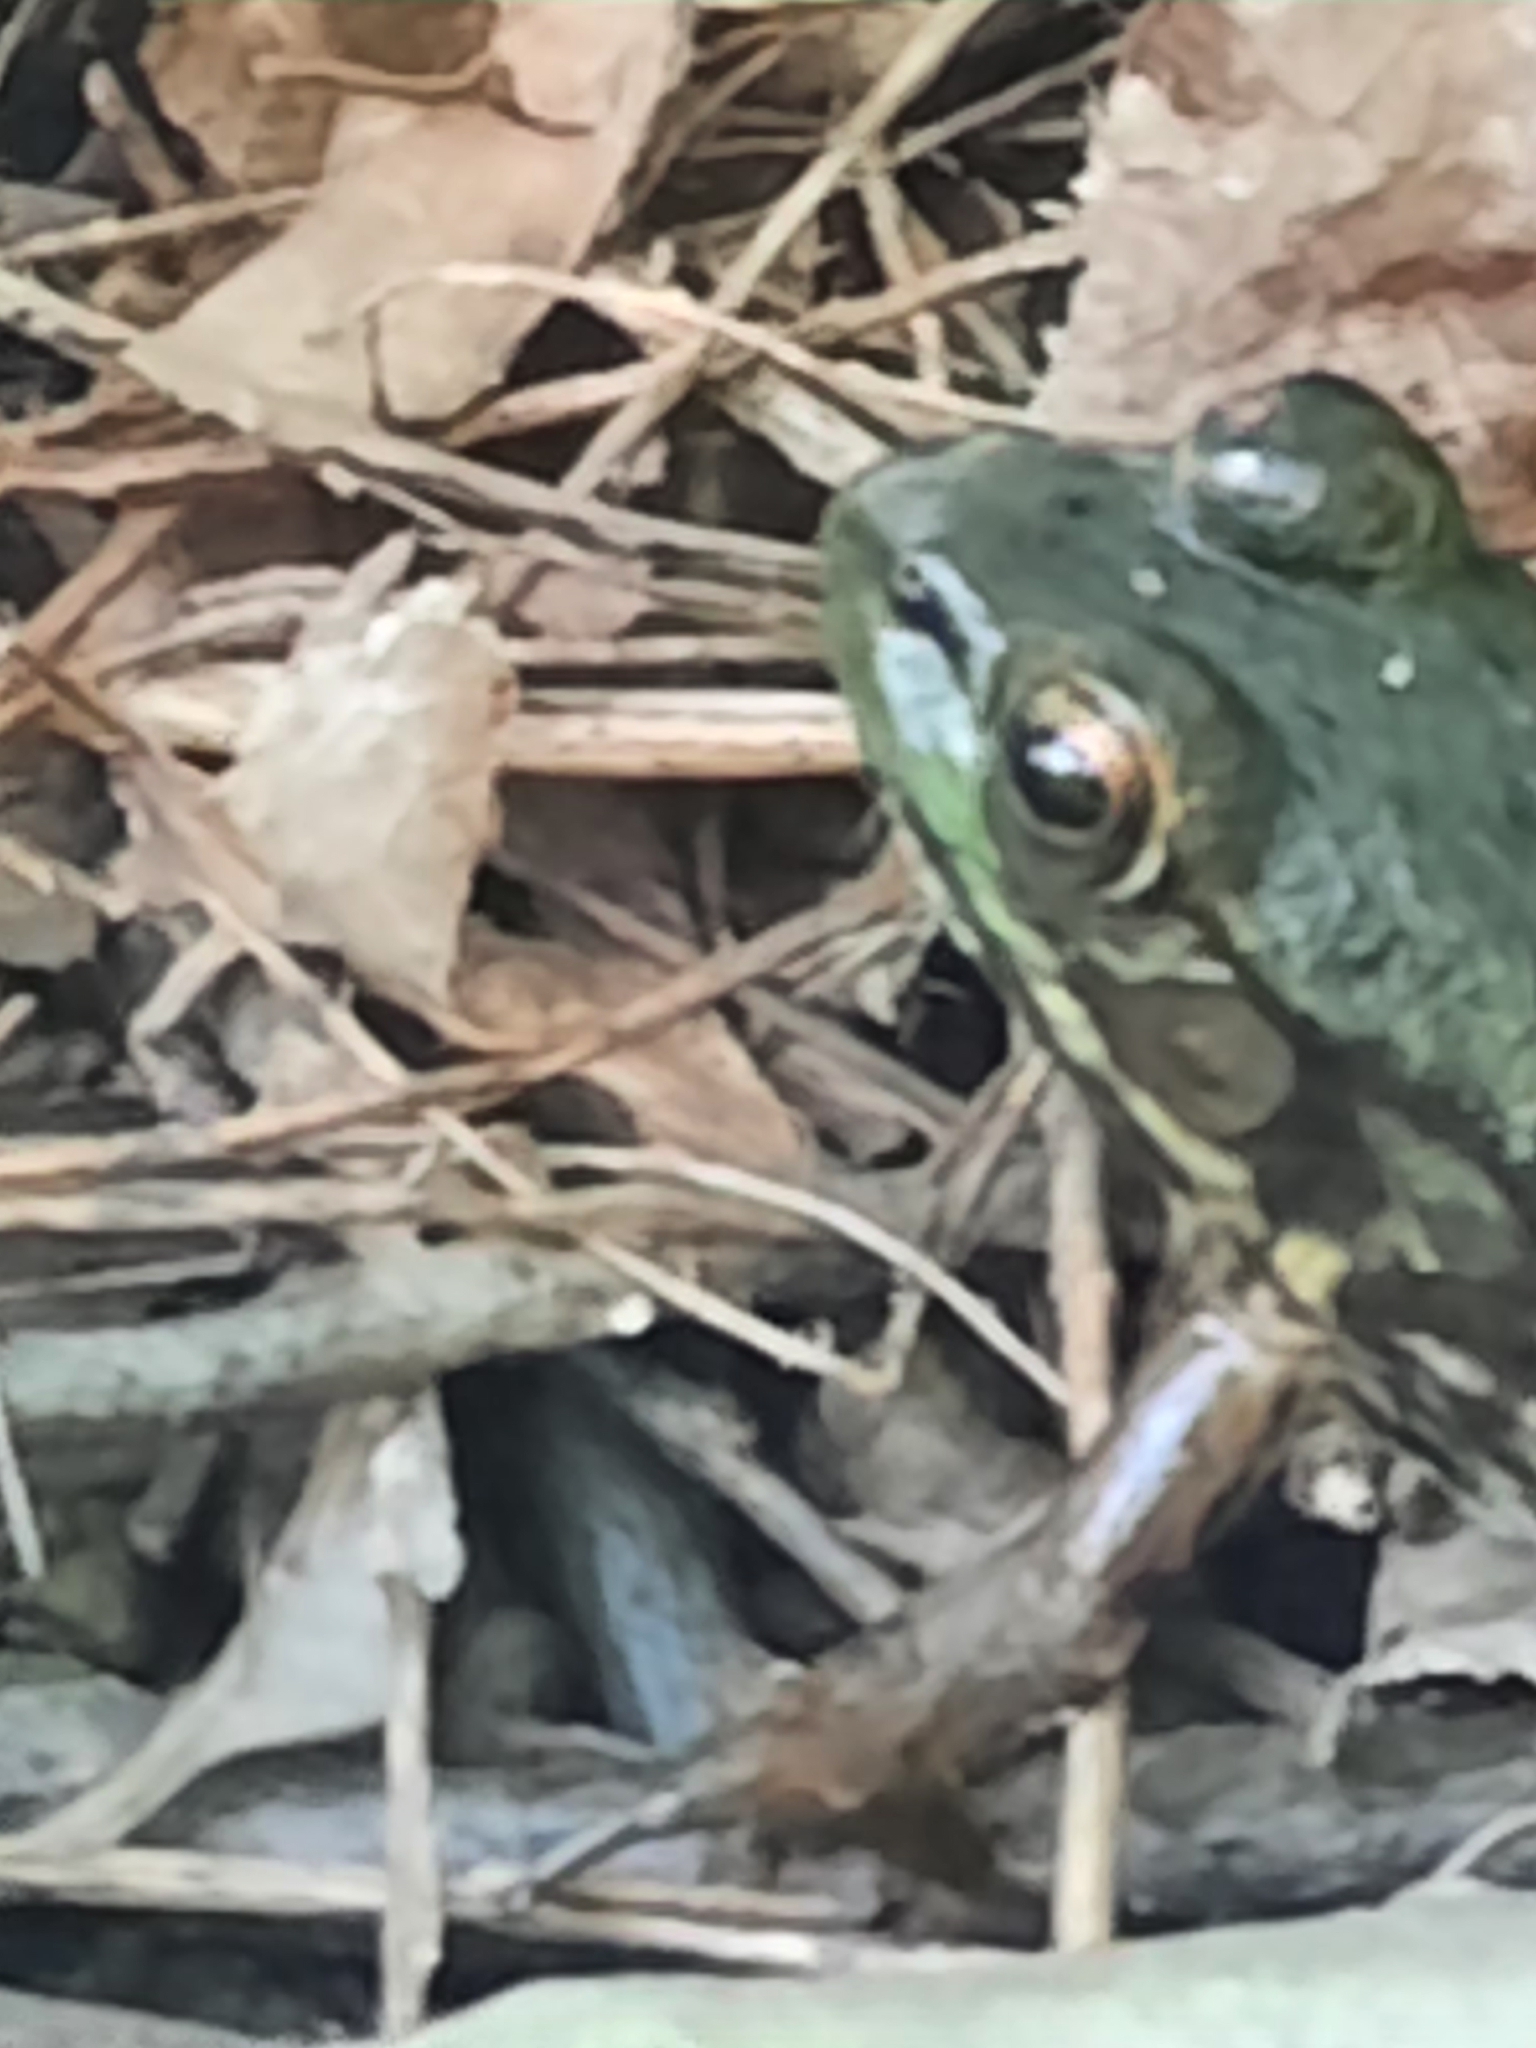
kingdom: Animalia
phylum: Chordata
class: Amphibia
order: Anura
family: Ranidae
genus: Lithobates
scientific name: Lithobates clamitans
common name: Green frog
